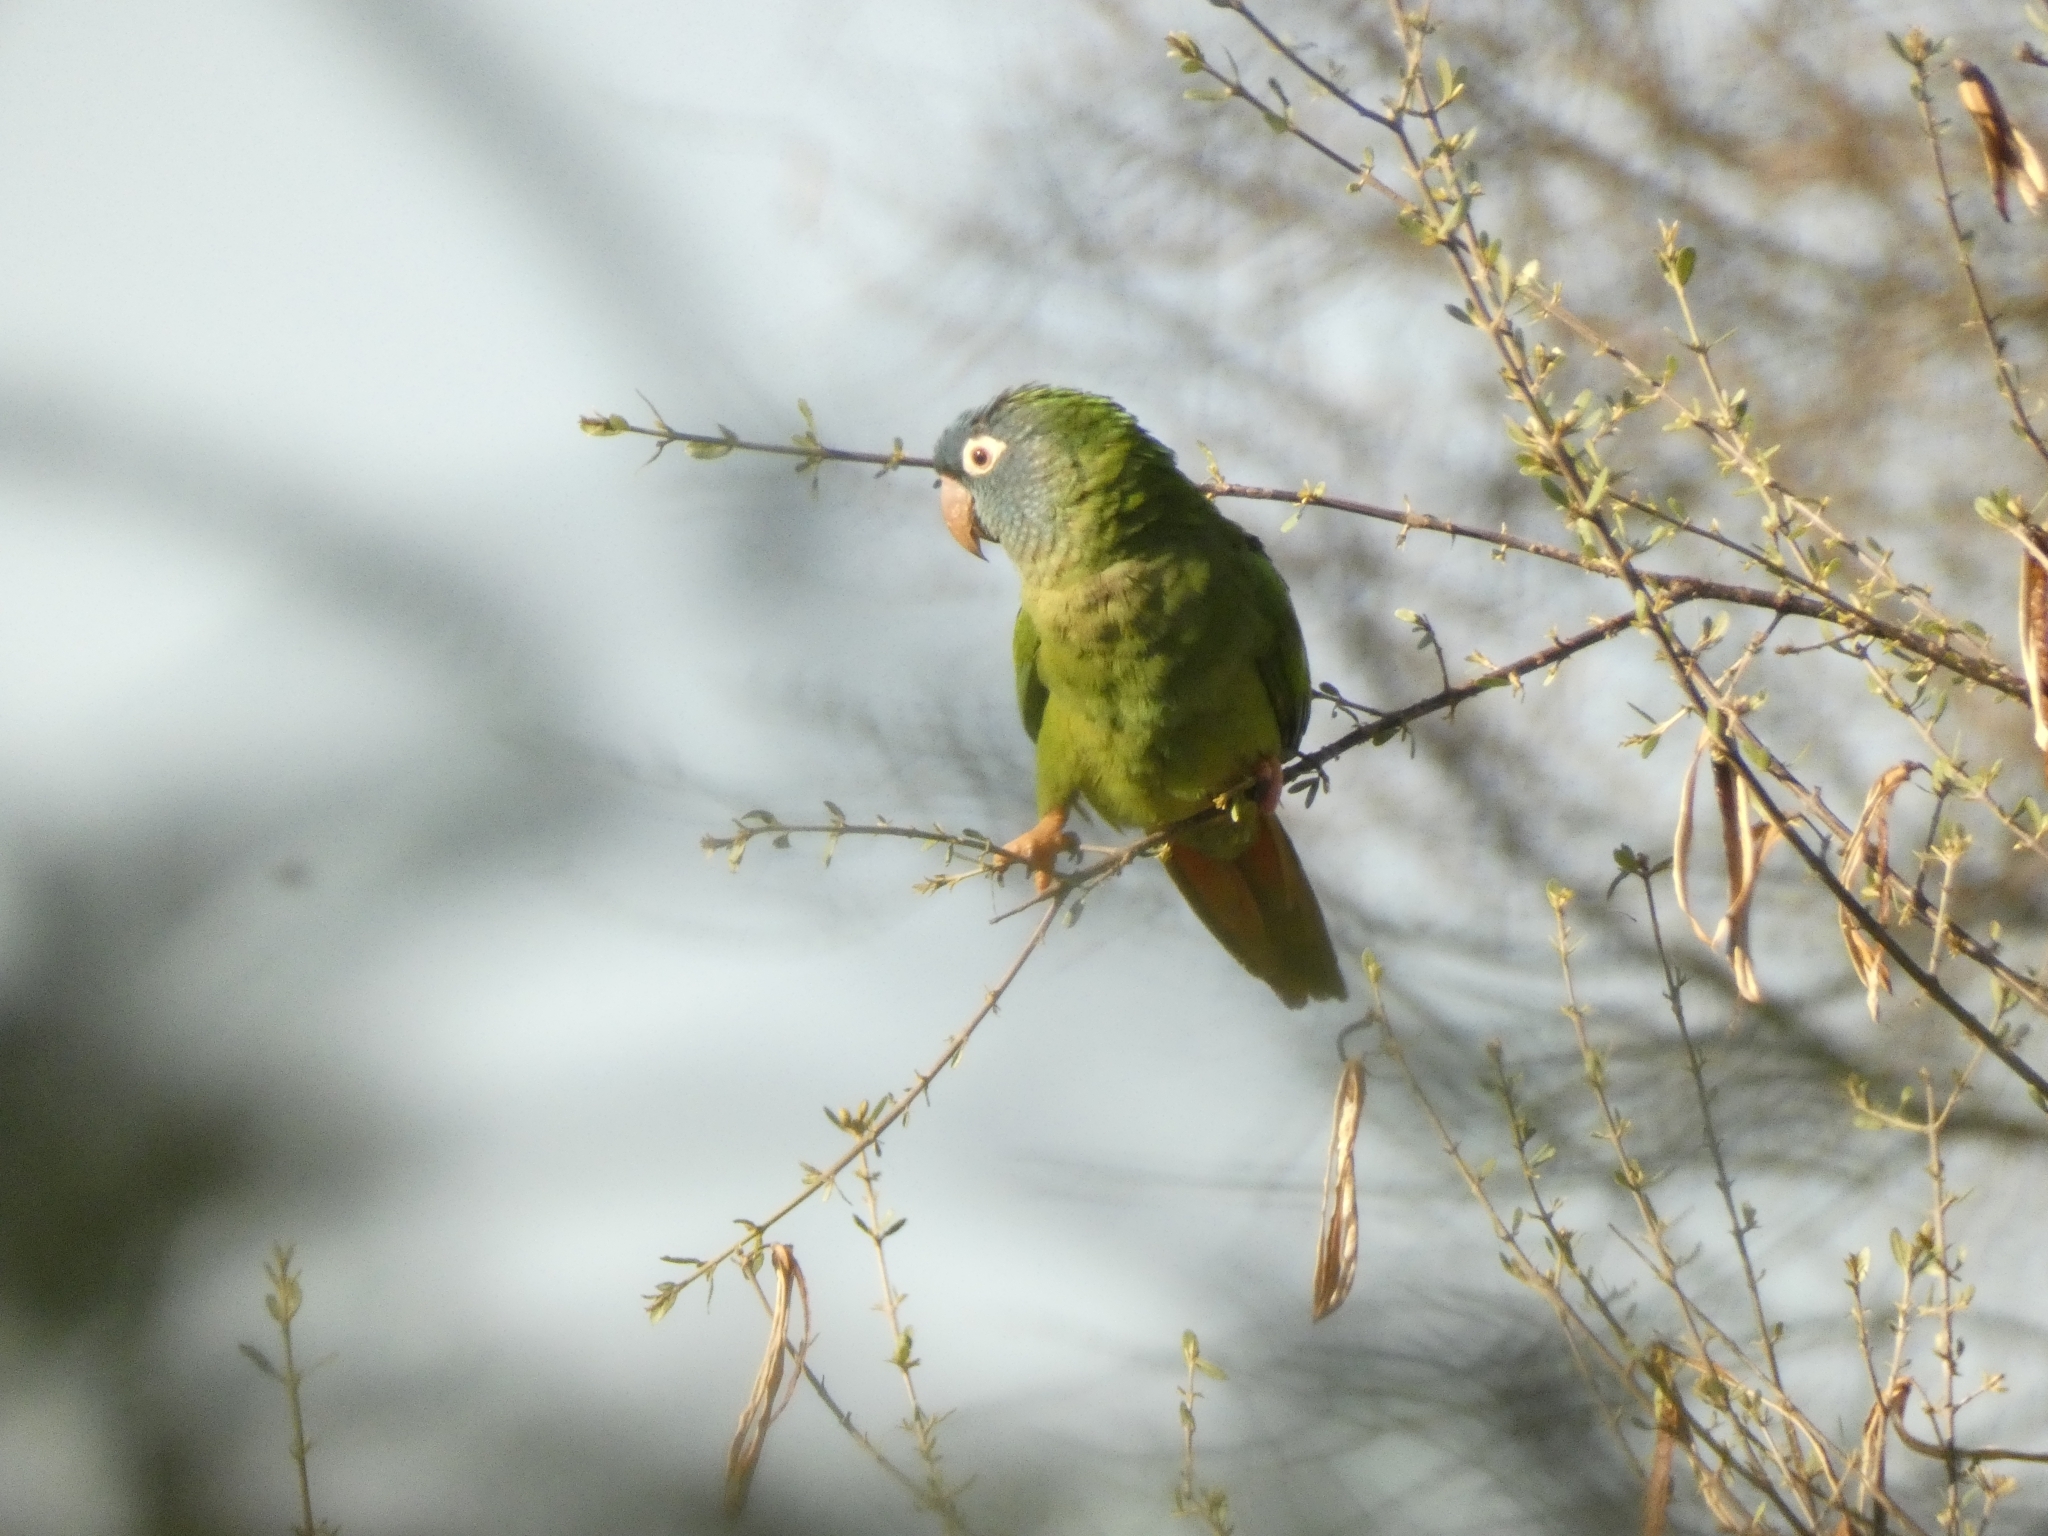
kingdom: Animalia
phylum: Chordata
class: Aves
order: Psittaciformes
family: Psittacidae
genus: Aratinga
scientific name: Aratinga acuticaudata
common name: Blue-crowned parakeet
